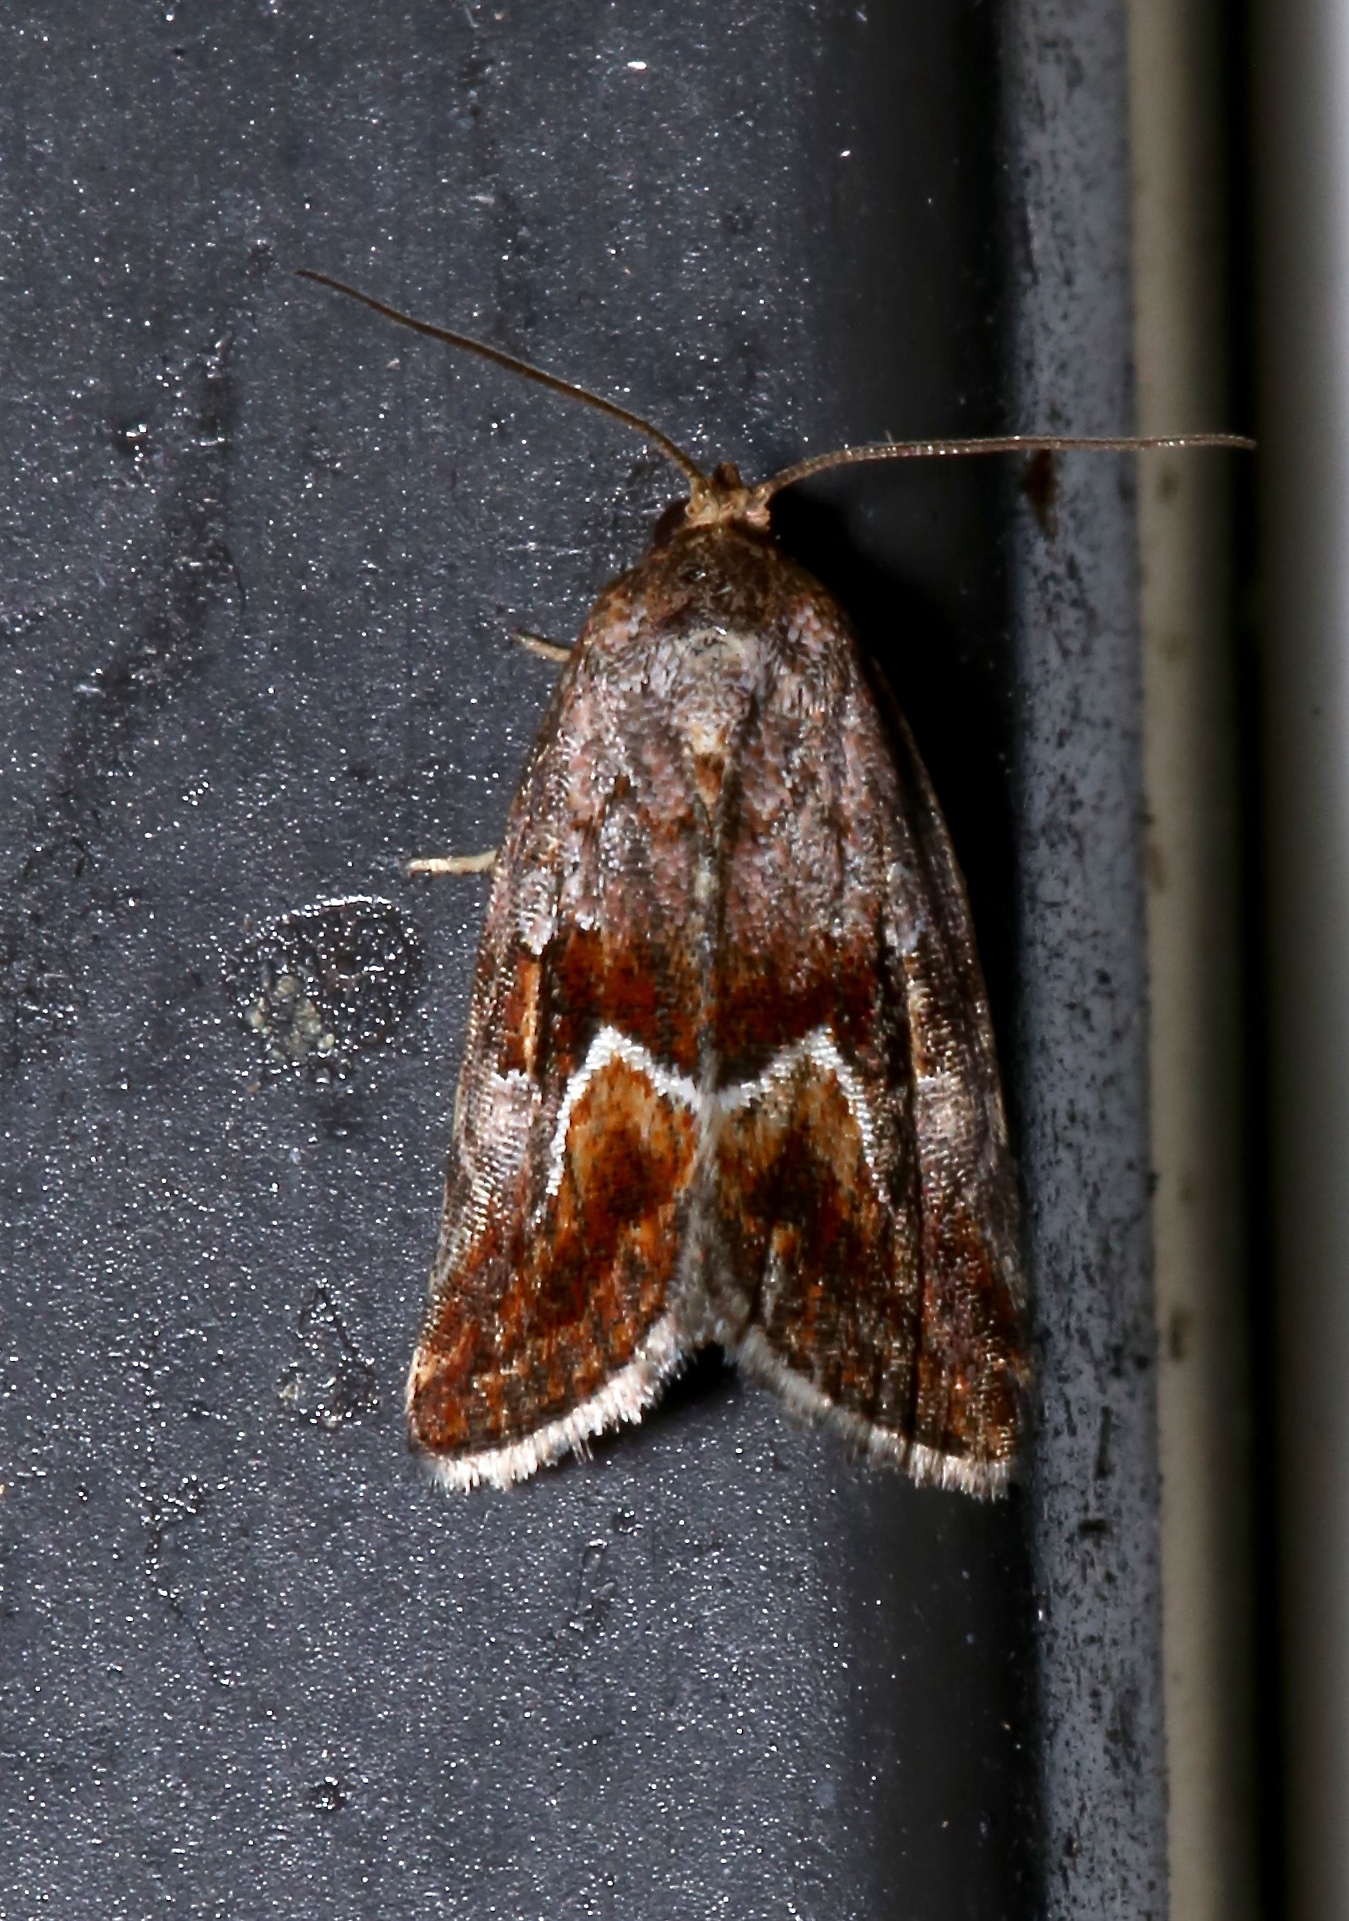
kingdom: Animalia
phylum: Arthropoda
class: Insecta
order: Lepidoptera
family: Noctuidae
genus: Deltote
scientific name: Deltote bellicula
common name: Bog glyph
